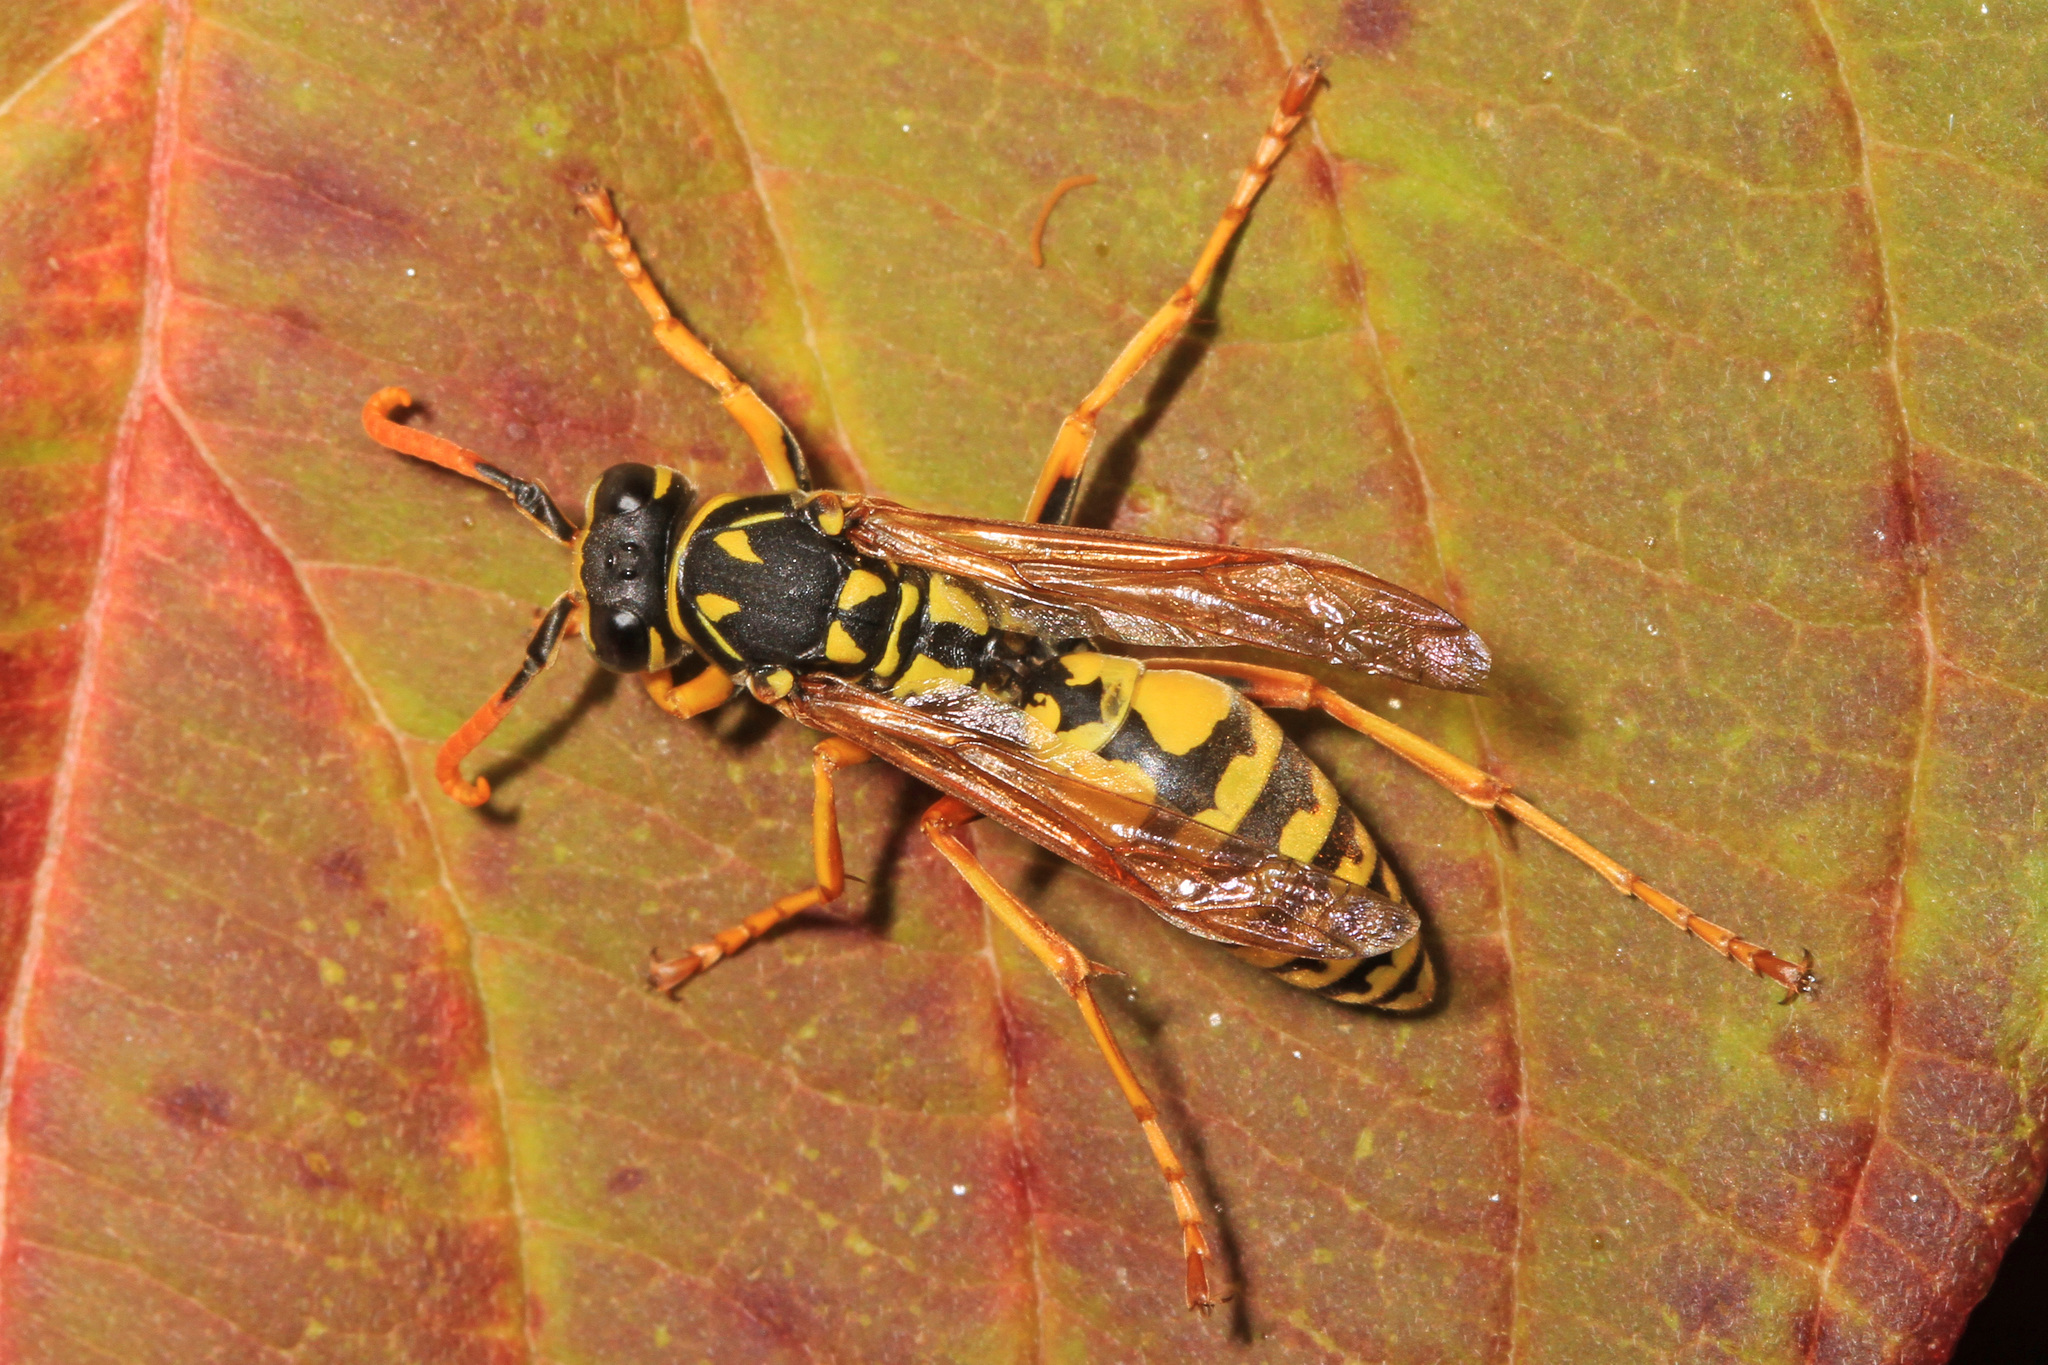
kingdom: Animalia
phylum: Arthropoda
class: Insecta
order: Hymenoptera
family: Eumenidae
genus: Polistes
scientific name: Polistes dominula
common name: Paper wasp
